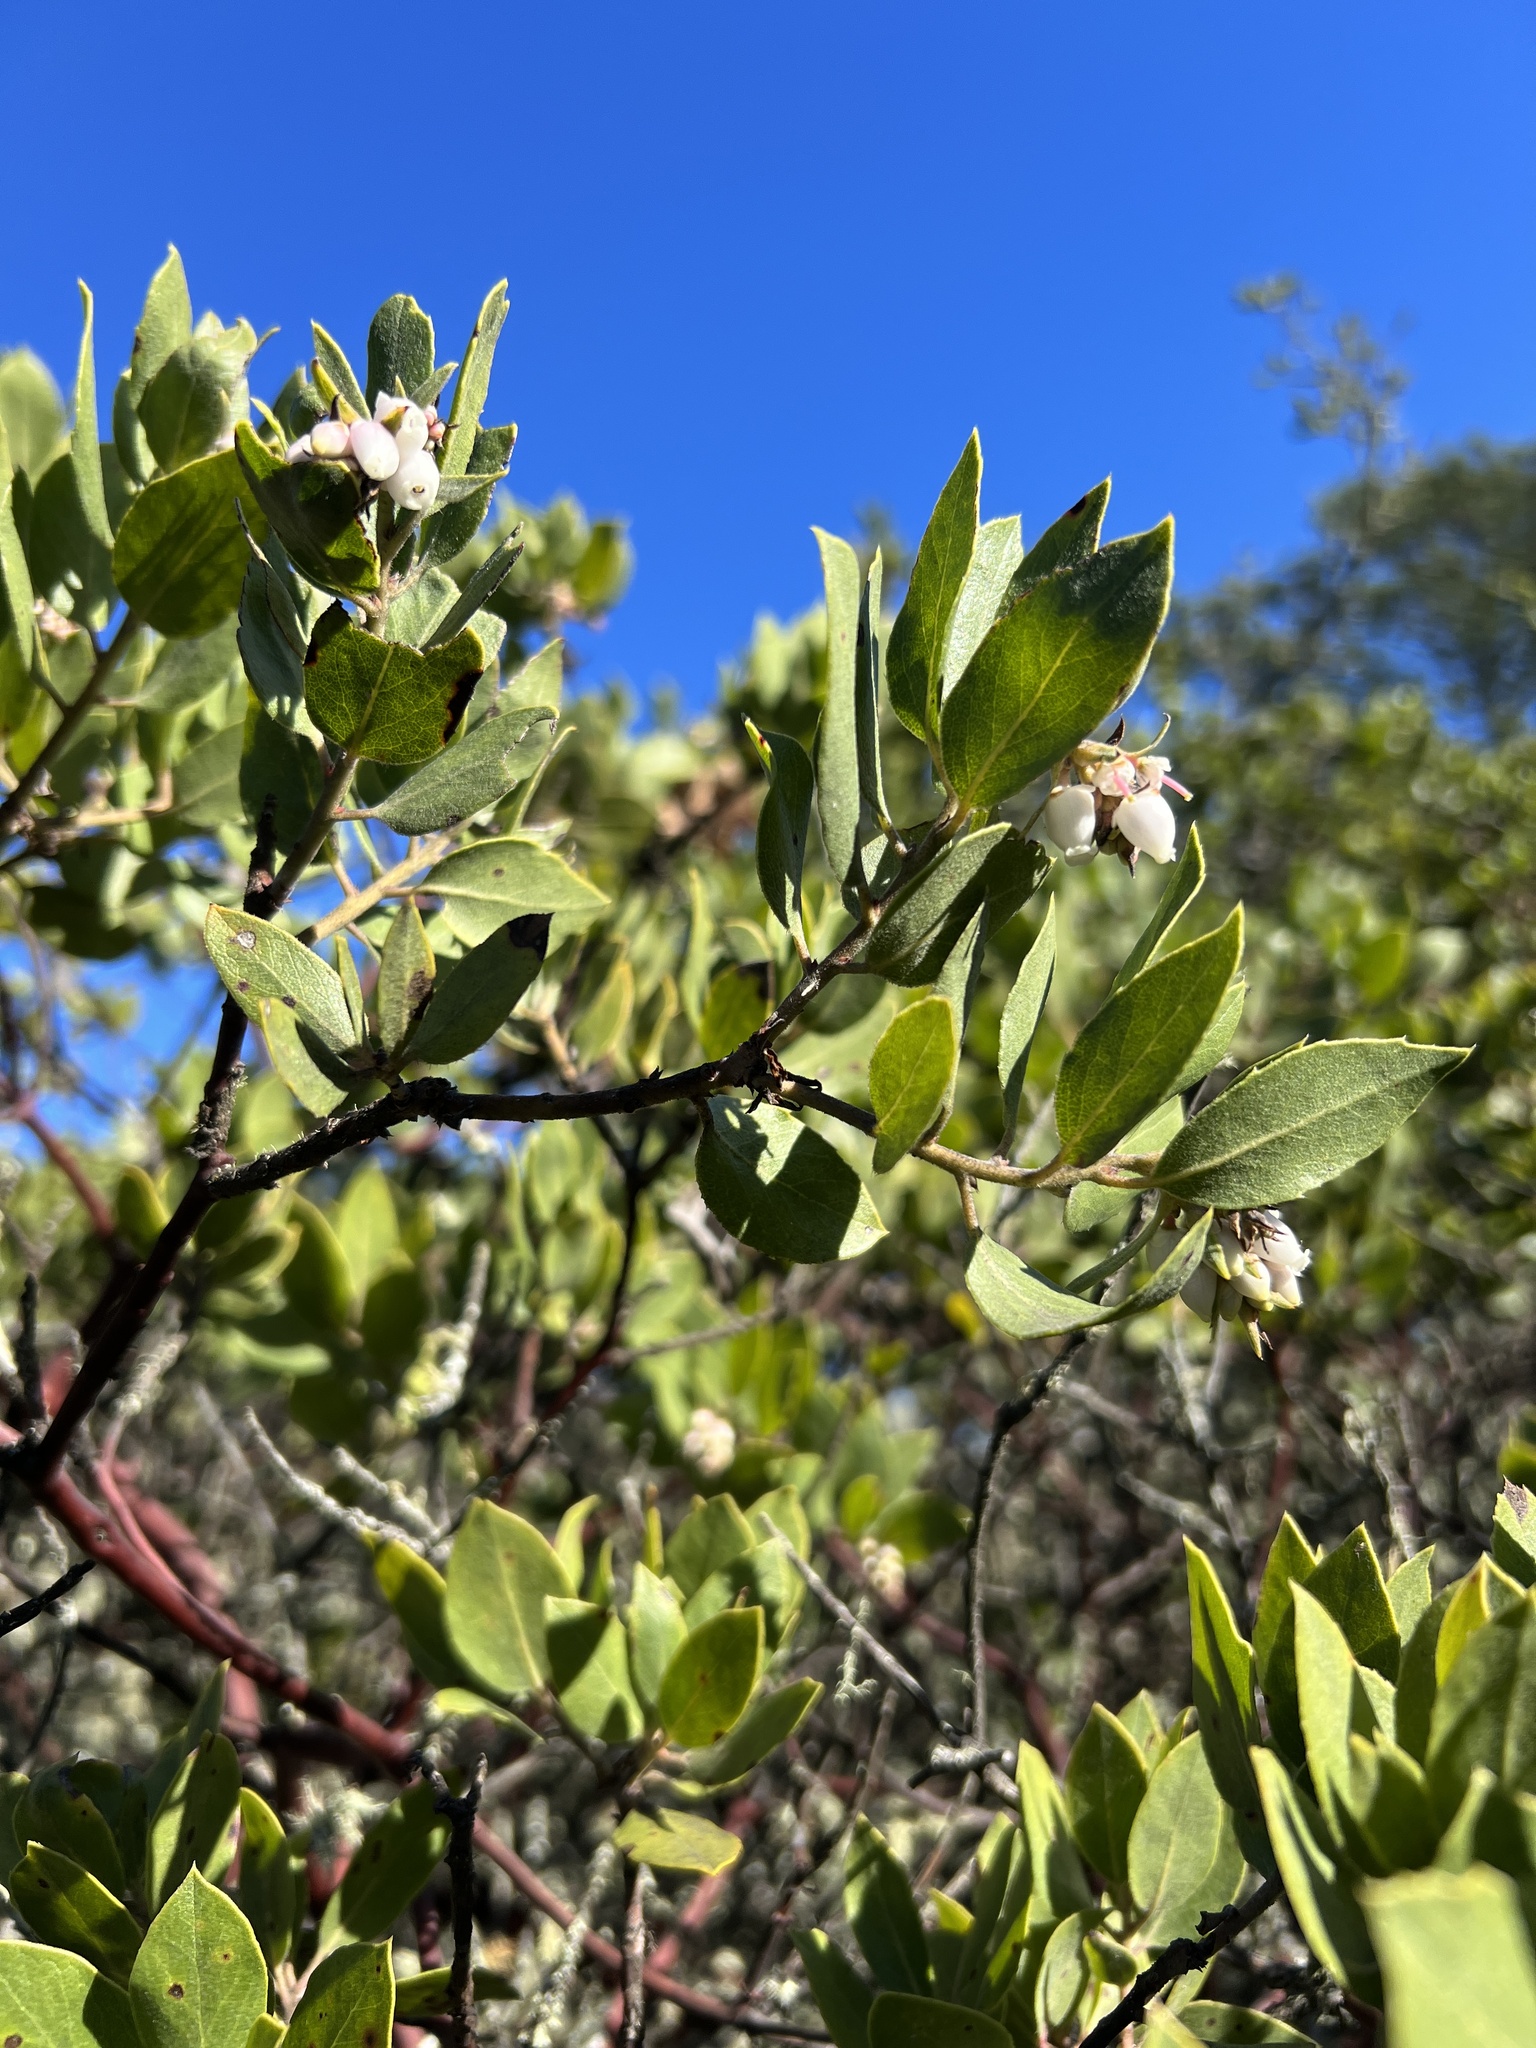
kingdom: Plantae
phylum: Tracheophyta
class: Magnoliopsida
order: Ericales
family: Ericaceae
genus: Arctostaphylos
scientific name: Arctostaphylos crustacea
